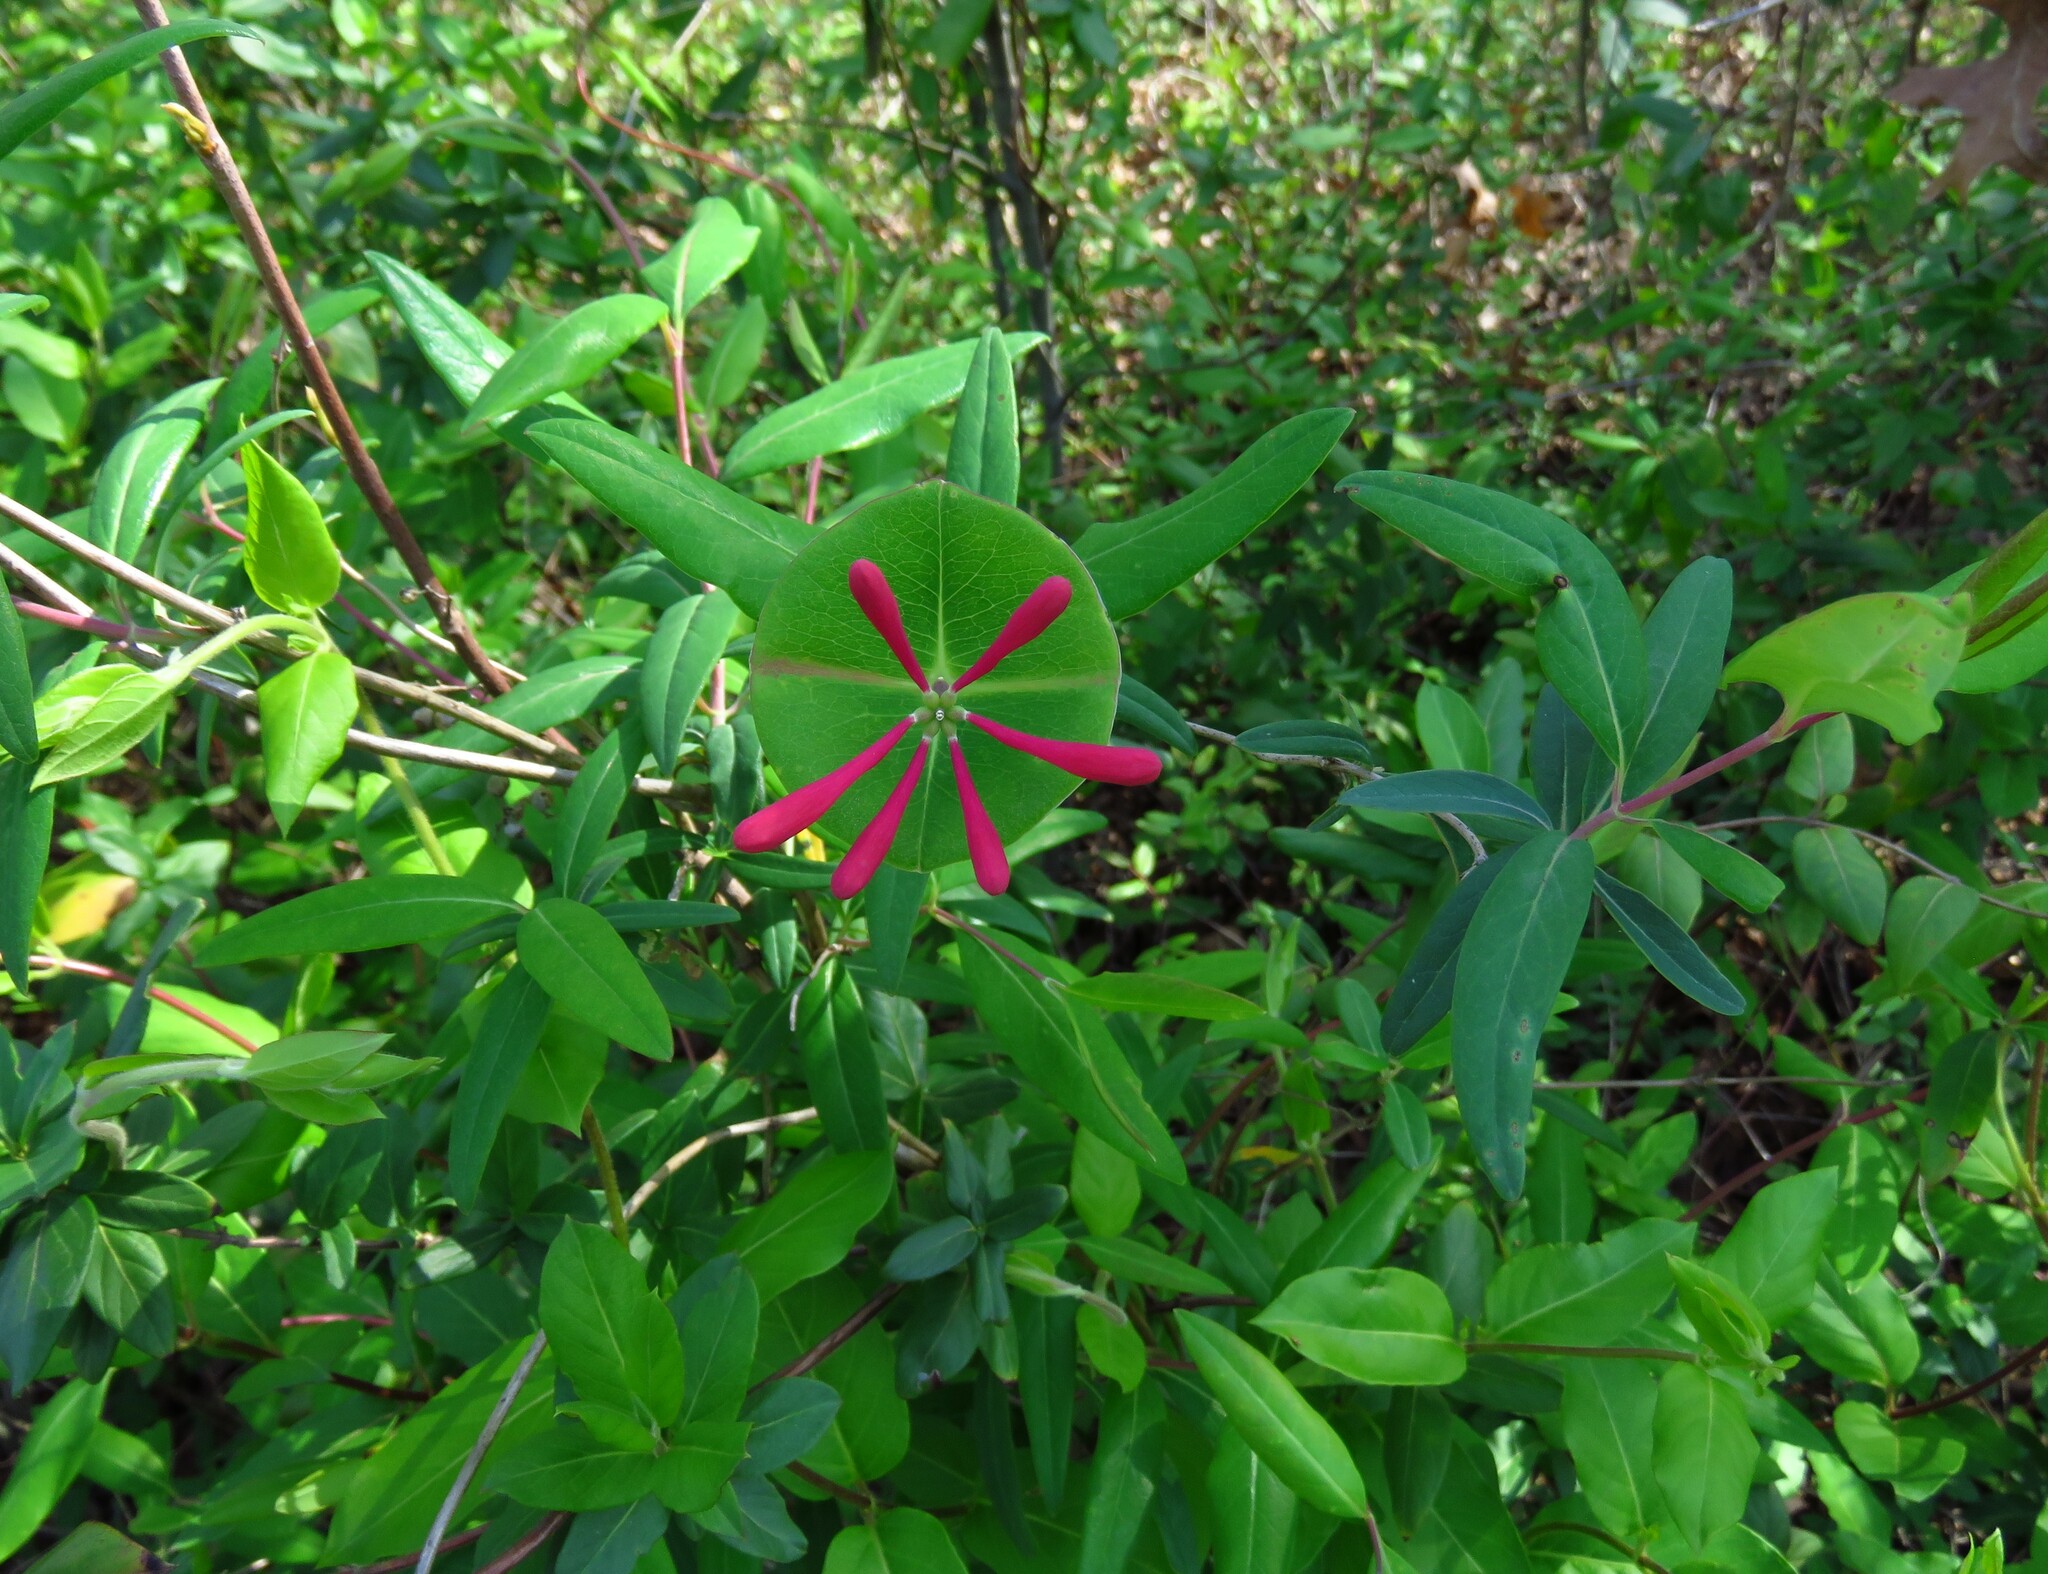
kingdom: Plantae
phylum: Tracheophyta
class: Magnoliopsida
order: Dipsacales
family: Caprifoliaceae
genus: Lonicera
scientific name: Lonicera sempervirens
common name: Coral honeysuckle
